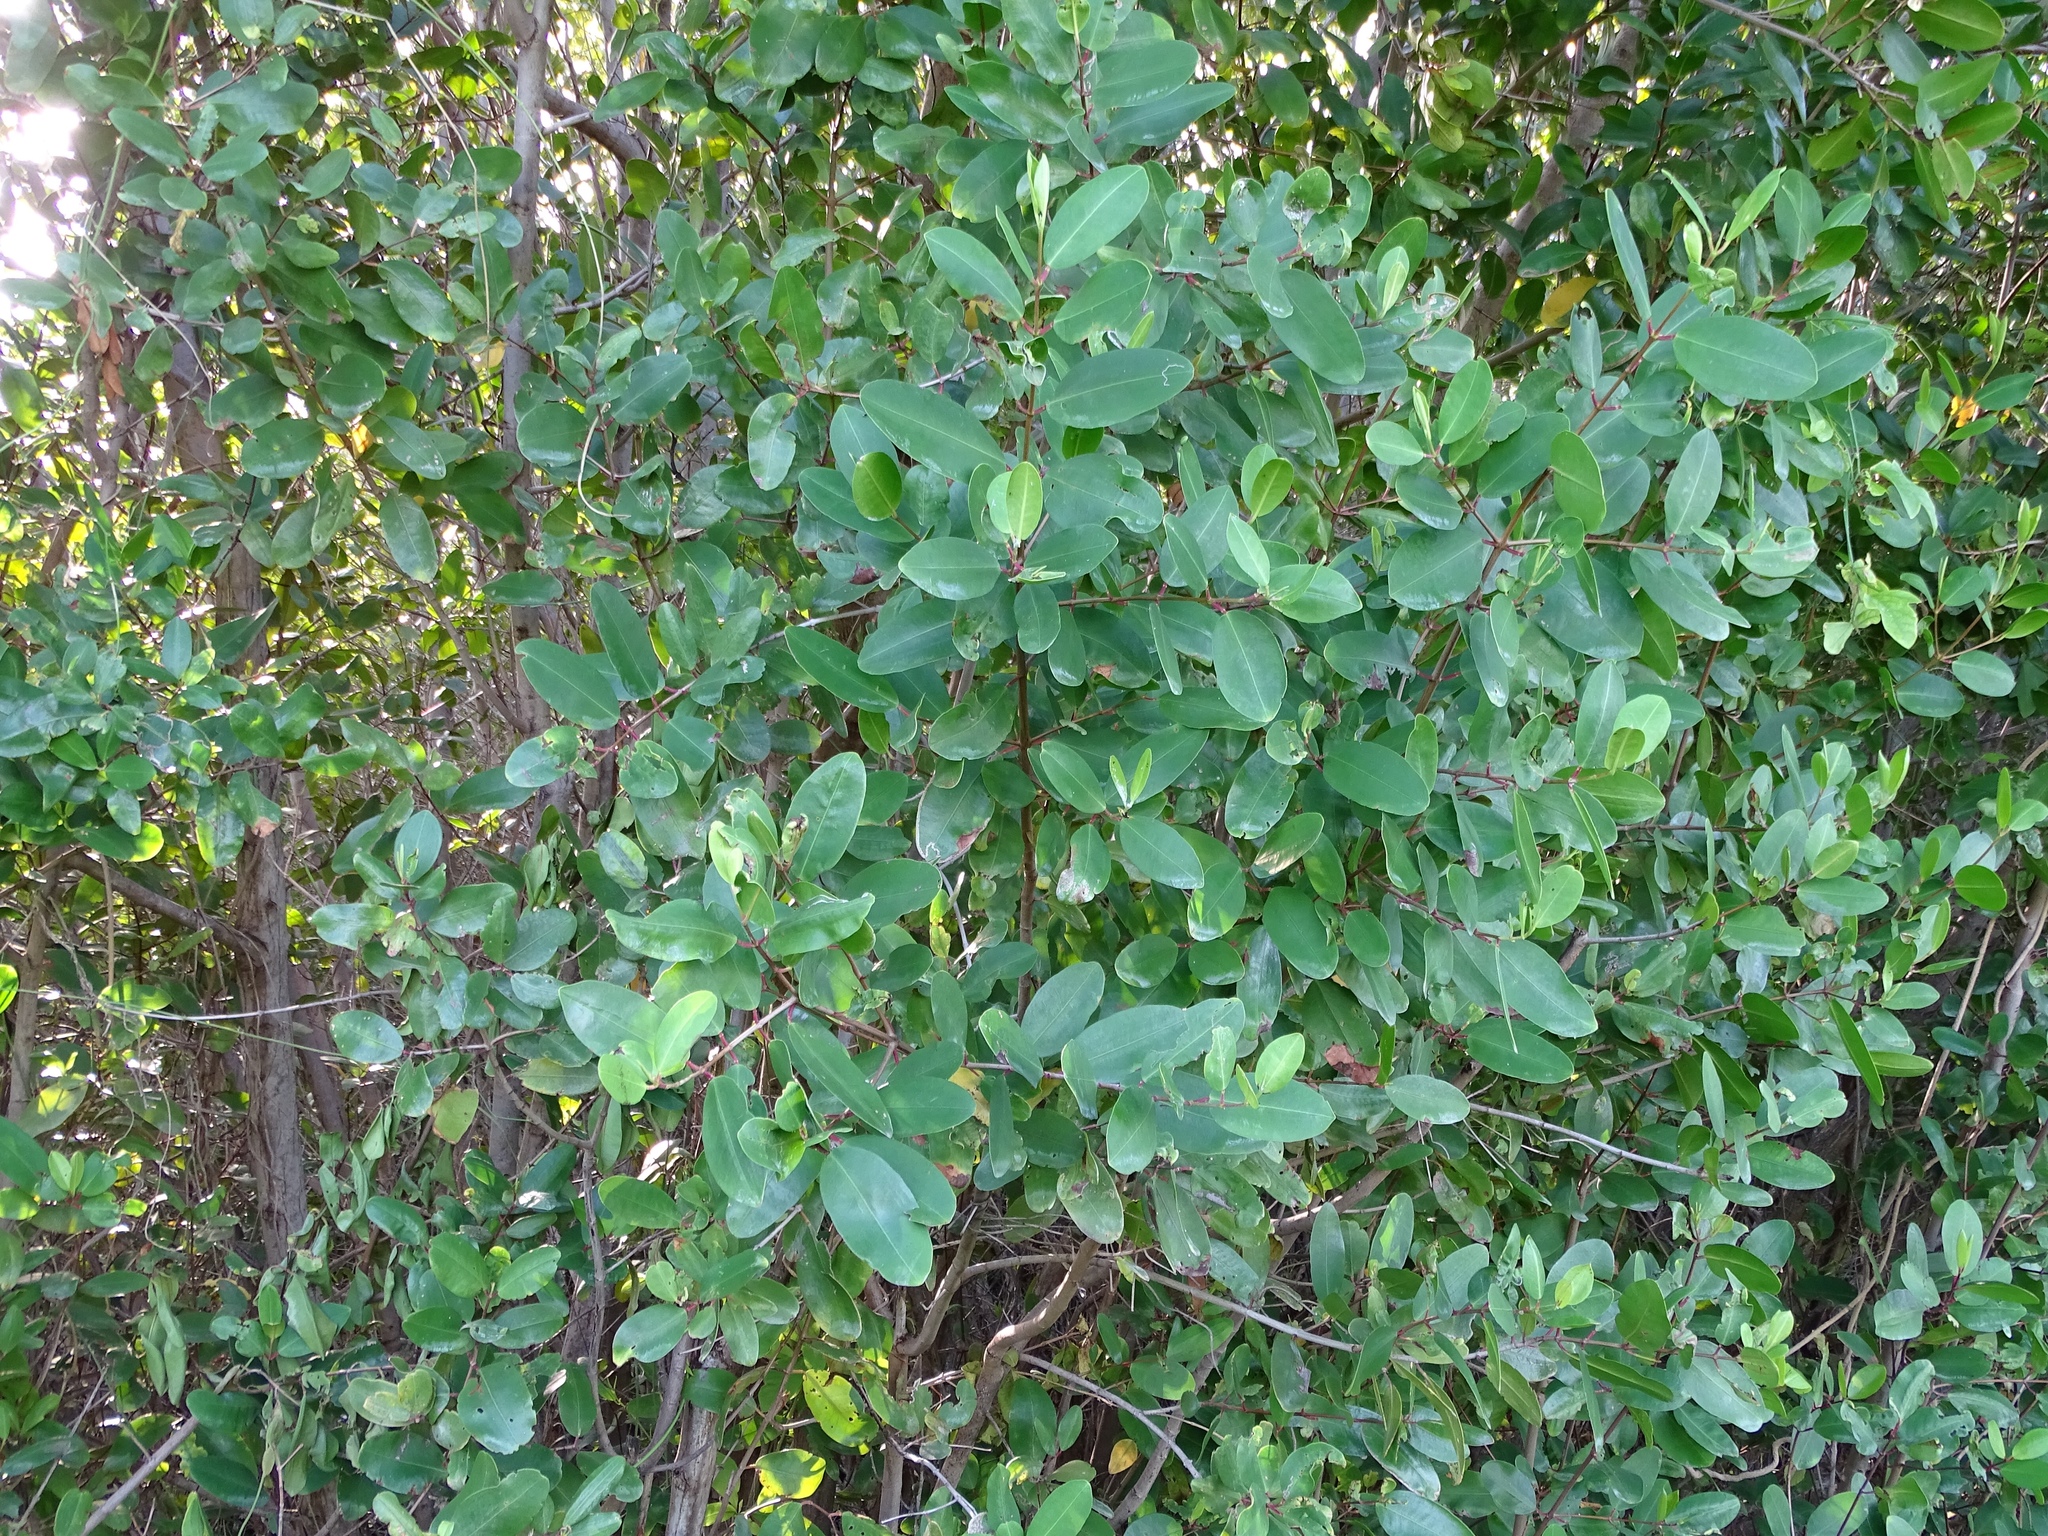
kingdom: Plantae
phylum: Tracheophyta
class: Magnoliopsida
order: Myrtales
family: Combretaceae
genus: Laguncularia
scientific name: Laguncularia racemosa
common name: White mangrove
